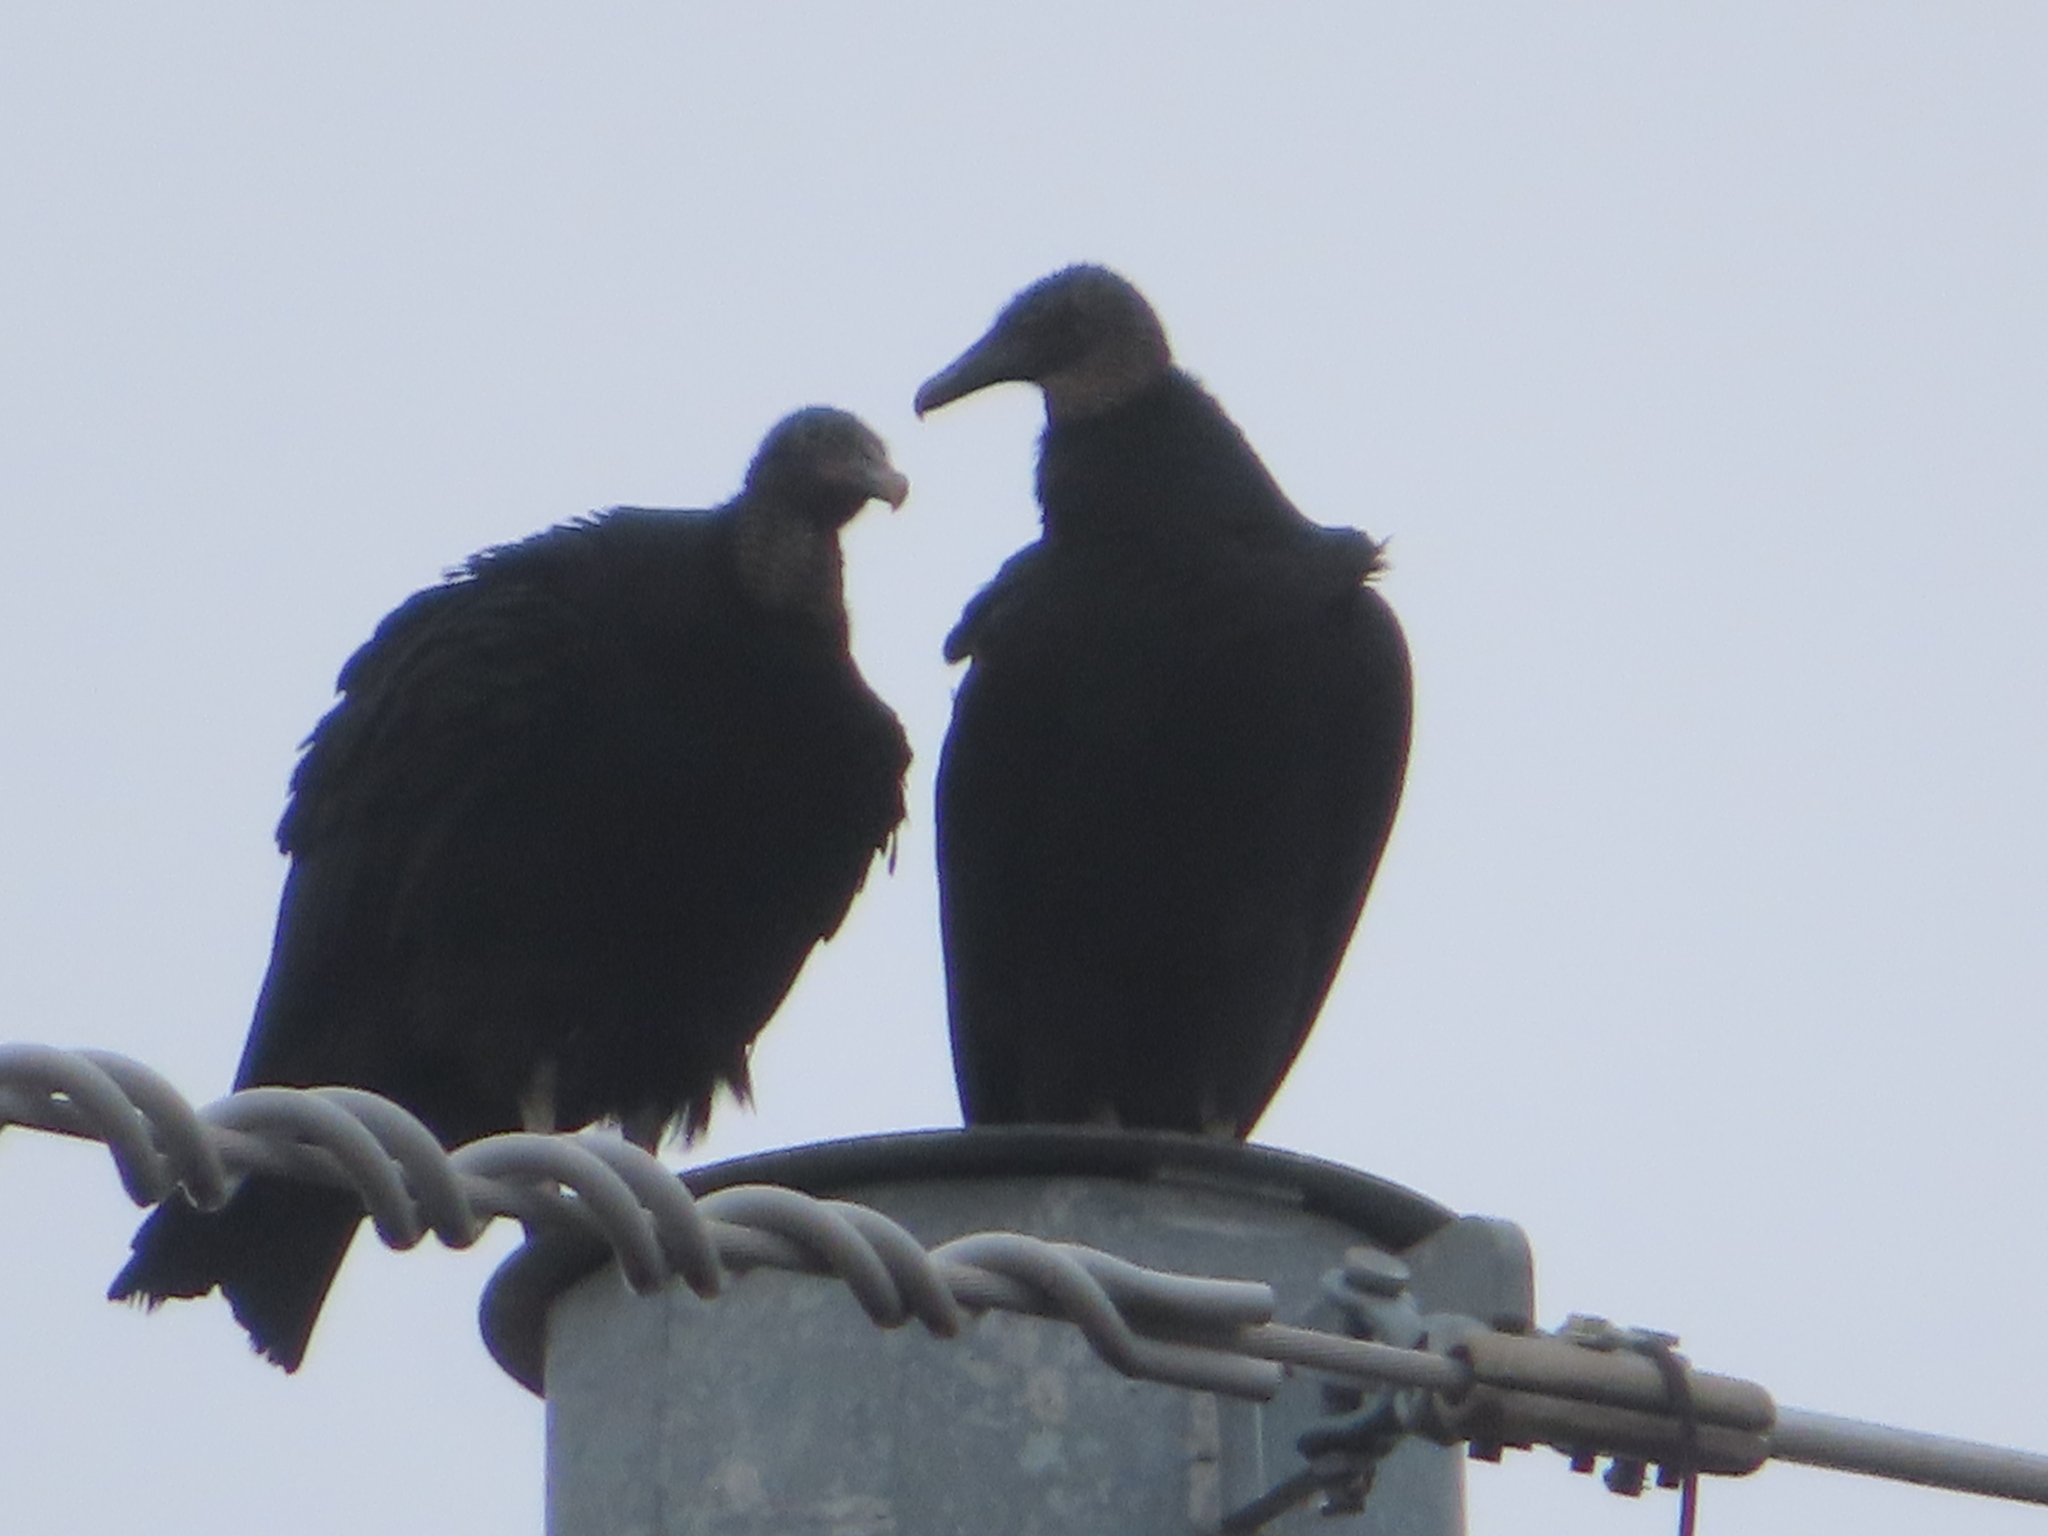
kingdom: Animalia
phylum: Chordata
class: Aves
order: Accipitriformes
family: Cathartidae
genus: Coragyps
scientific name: Coragyps atratus
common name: Black vulture
